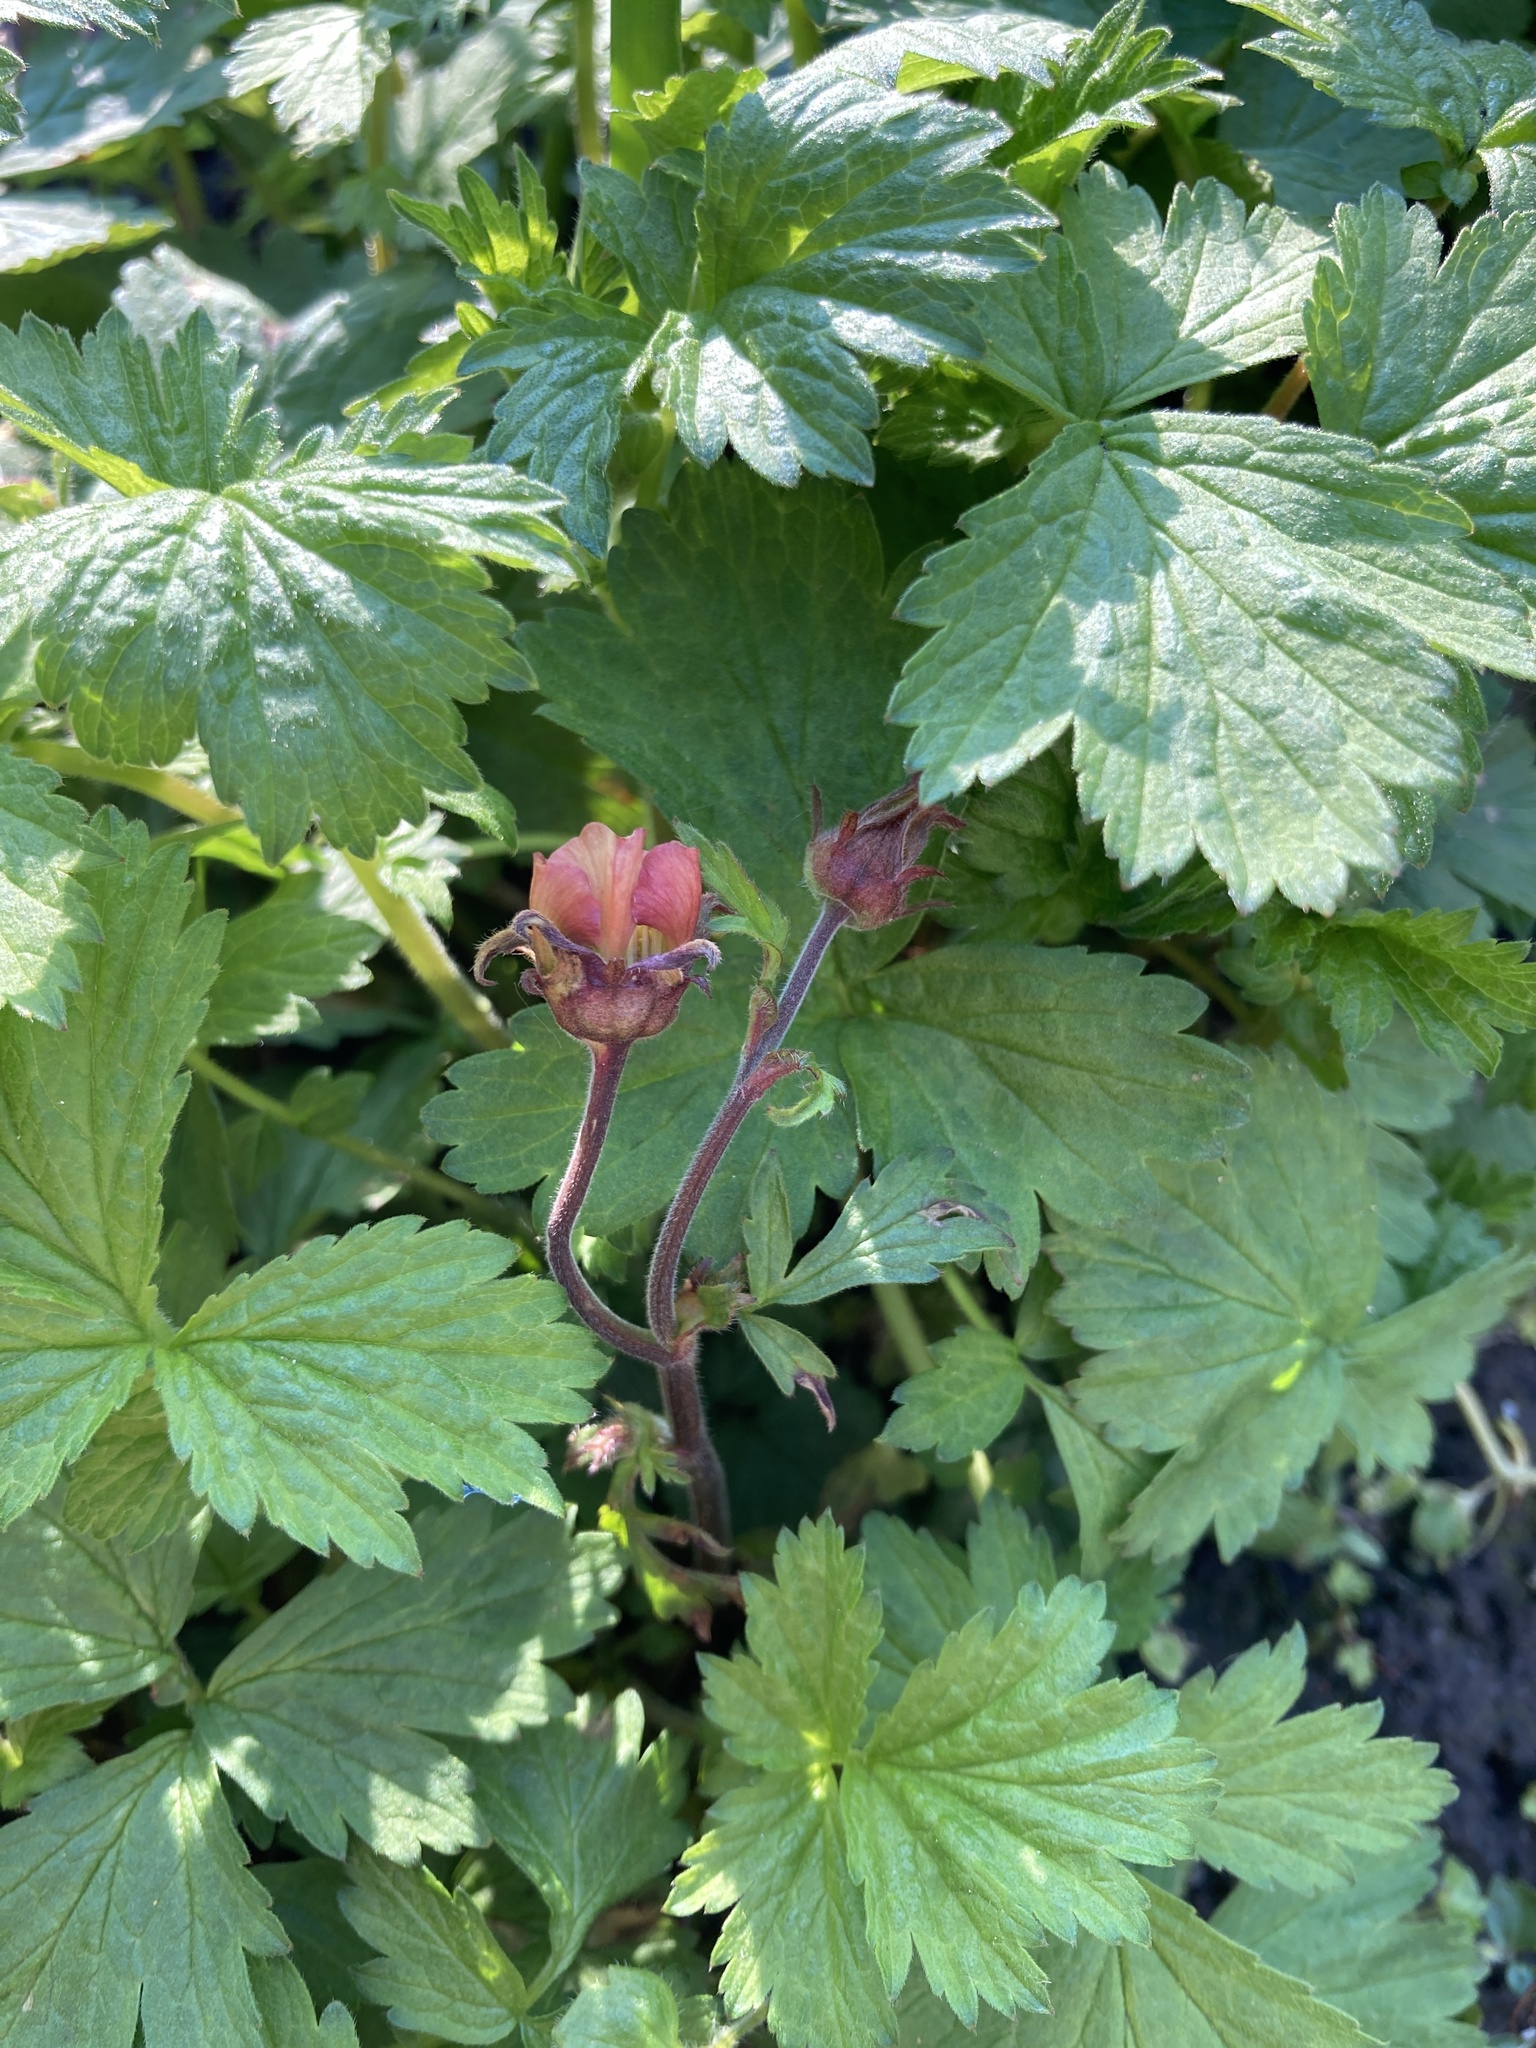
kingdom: Plantae
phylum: Tracheophyta
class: Magnoliopsida
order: Rosales
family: Rosaceae
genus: Geum
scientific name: Geum rivale
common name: Water avens
